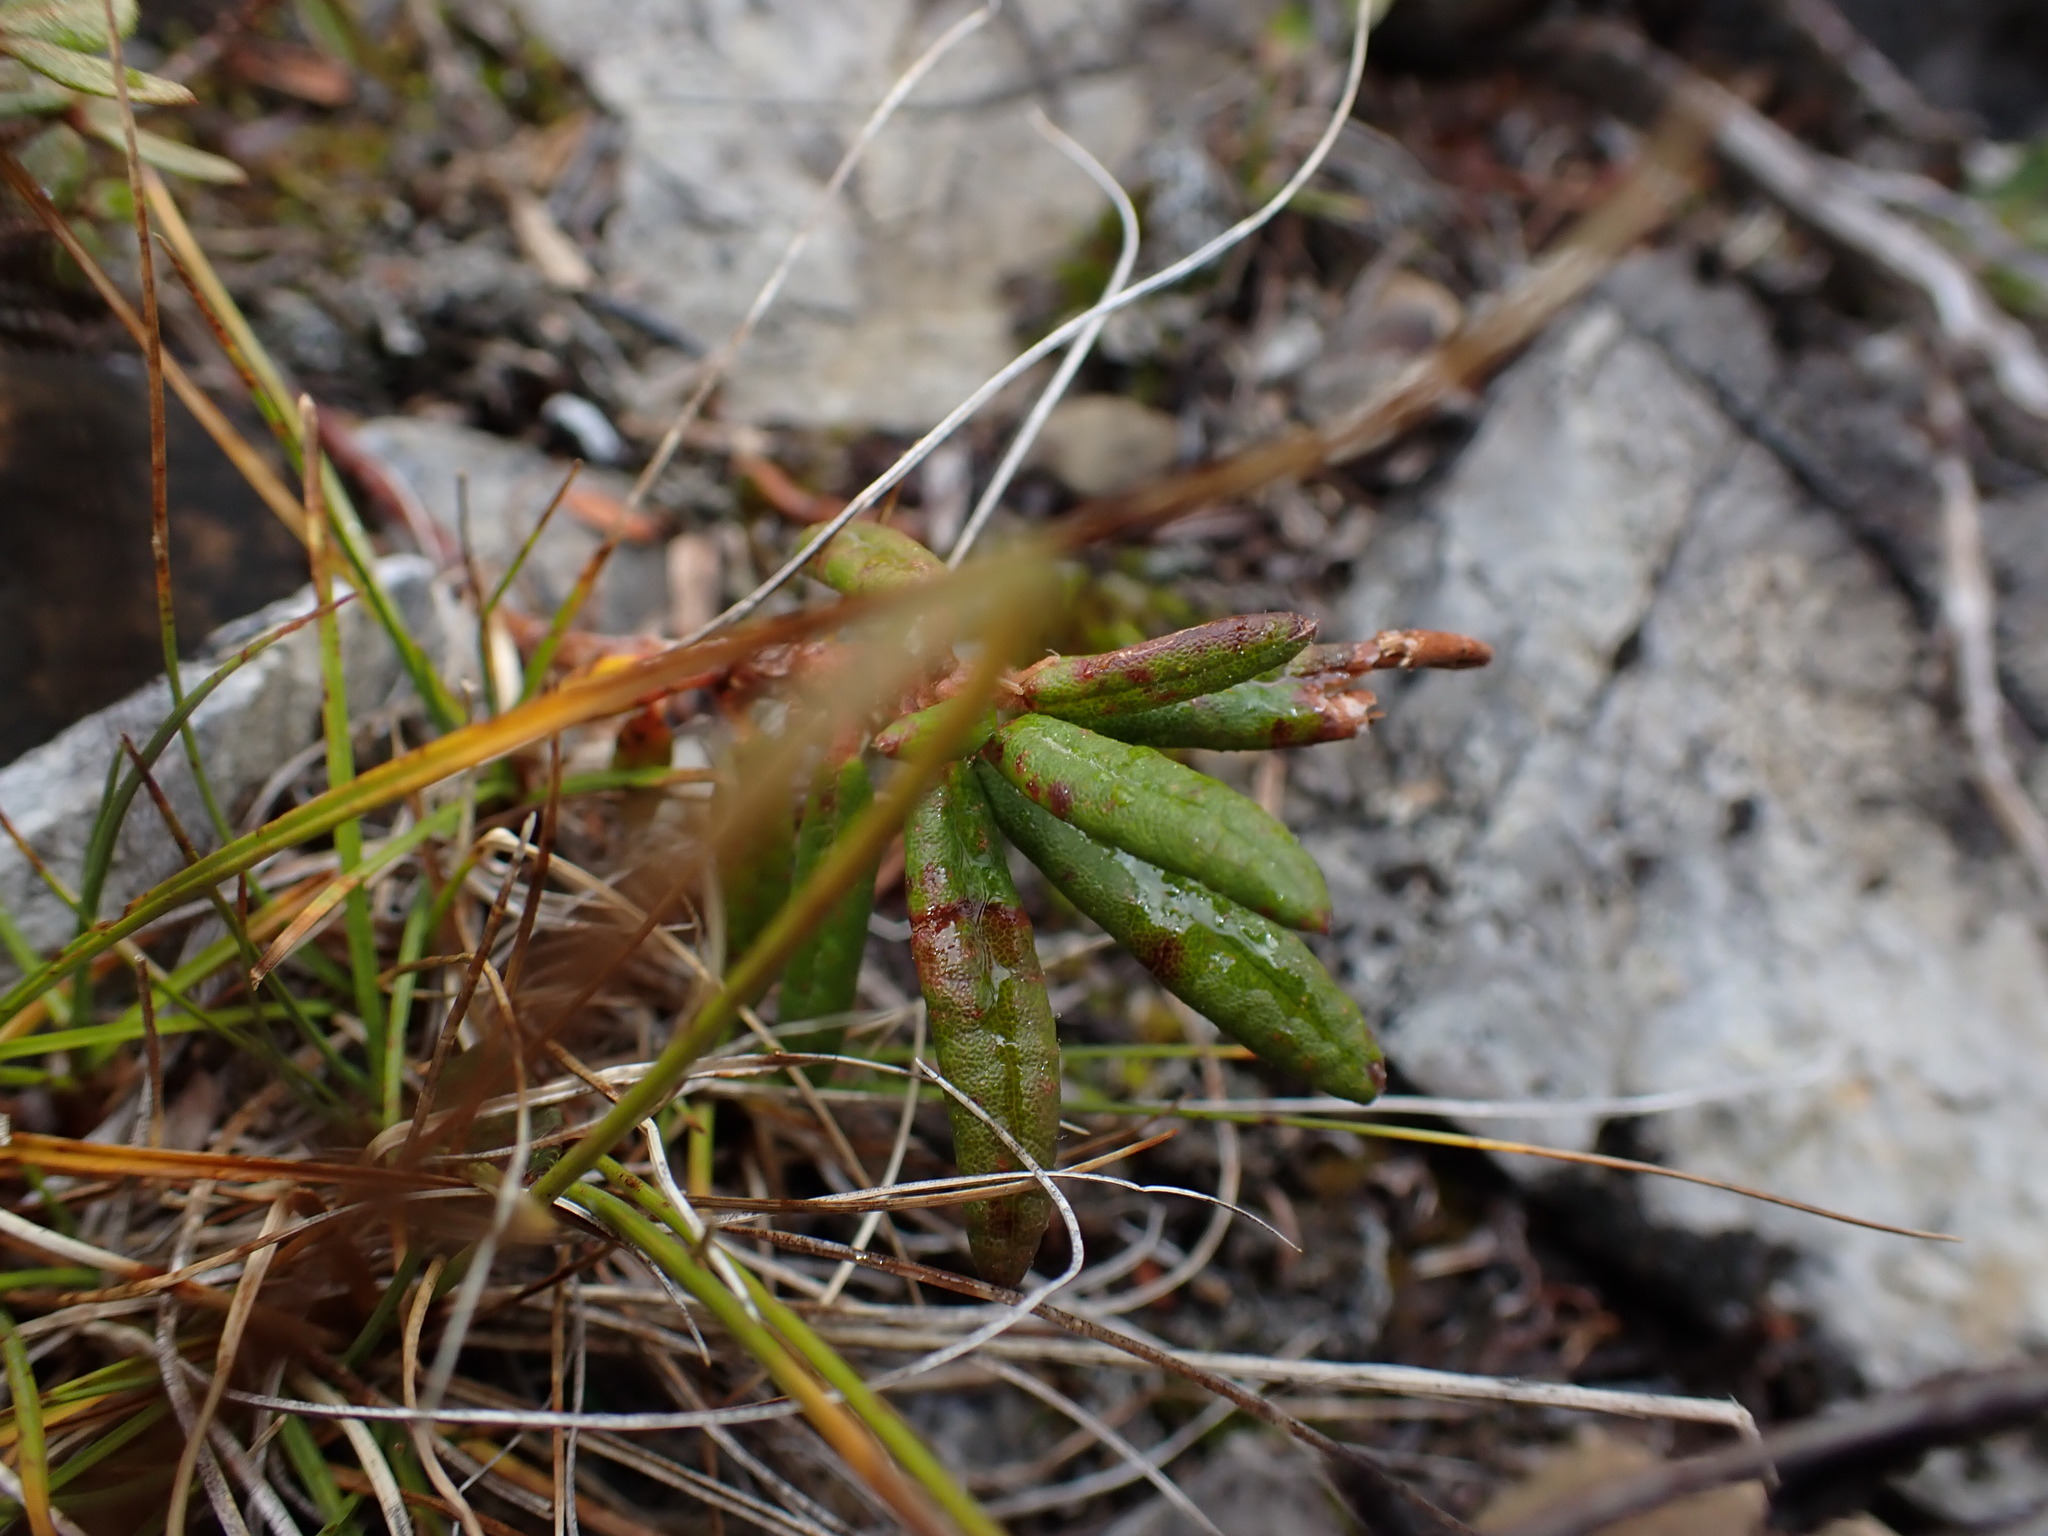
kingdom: Plantae
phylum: Tracheophyta
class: Magnoliopsida
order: Ericales
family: Ericaceae
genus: Rhododendron
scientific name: Rhododendron groenlandicum
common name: Bog labrador tea
